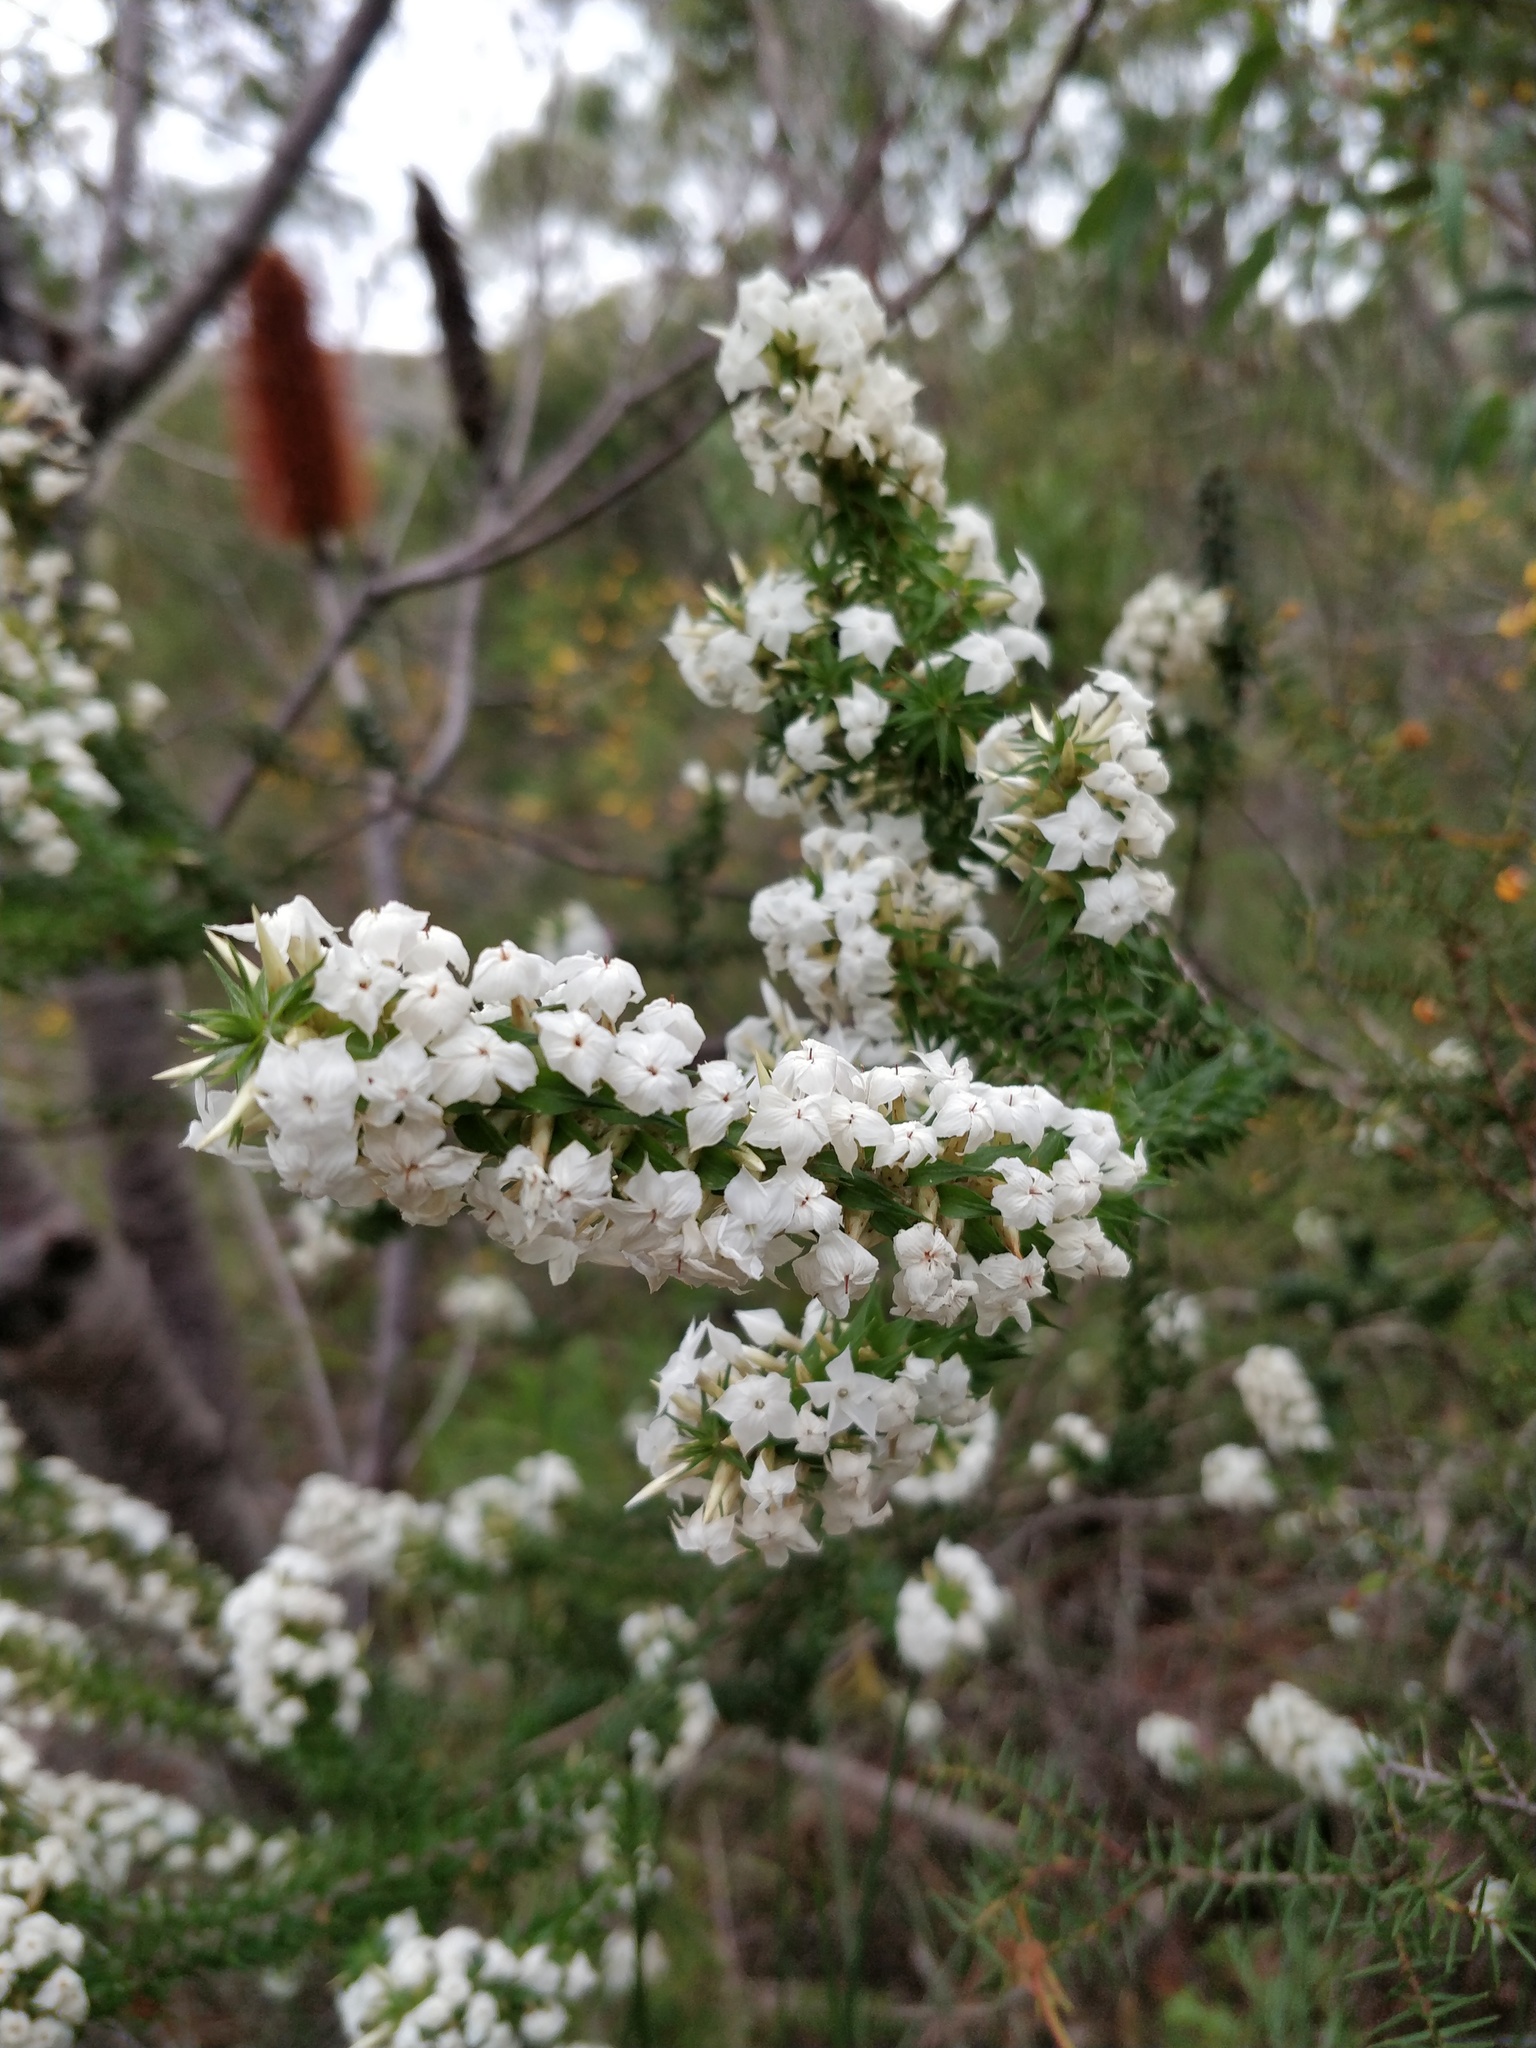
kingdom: Plantae
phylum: Tracheophyta
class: Magnoliopsida
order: Ericales
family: Ericaceae
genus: Woollsia
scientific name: Woollsia pungens
